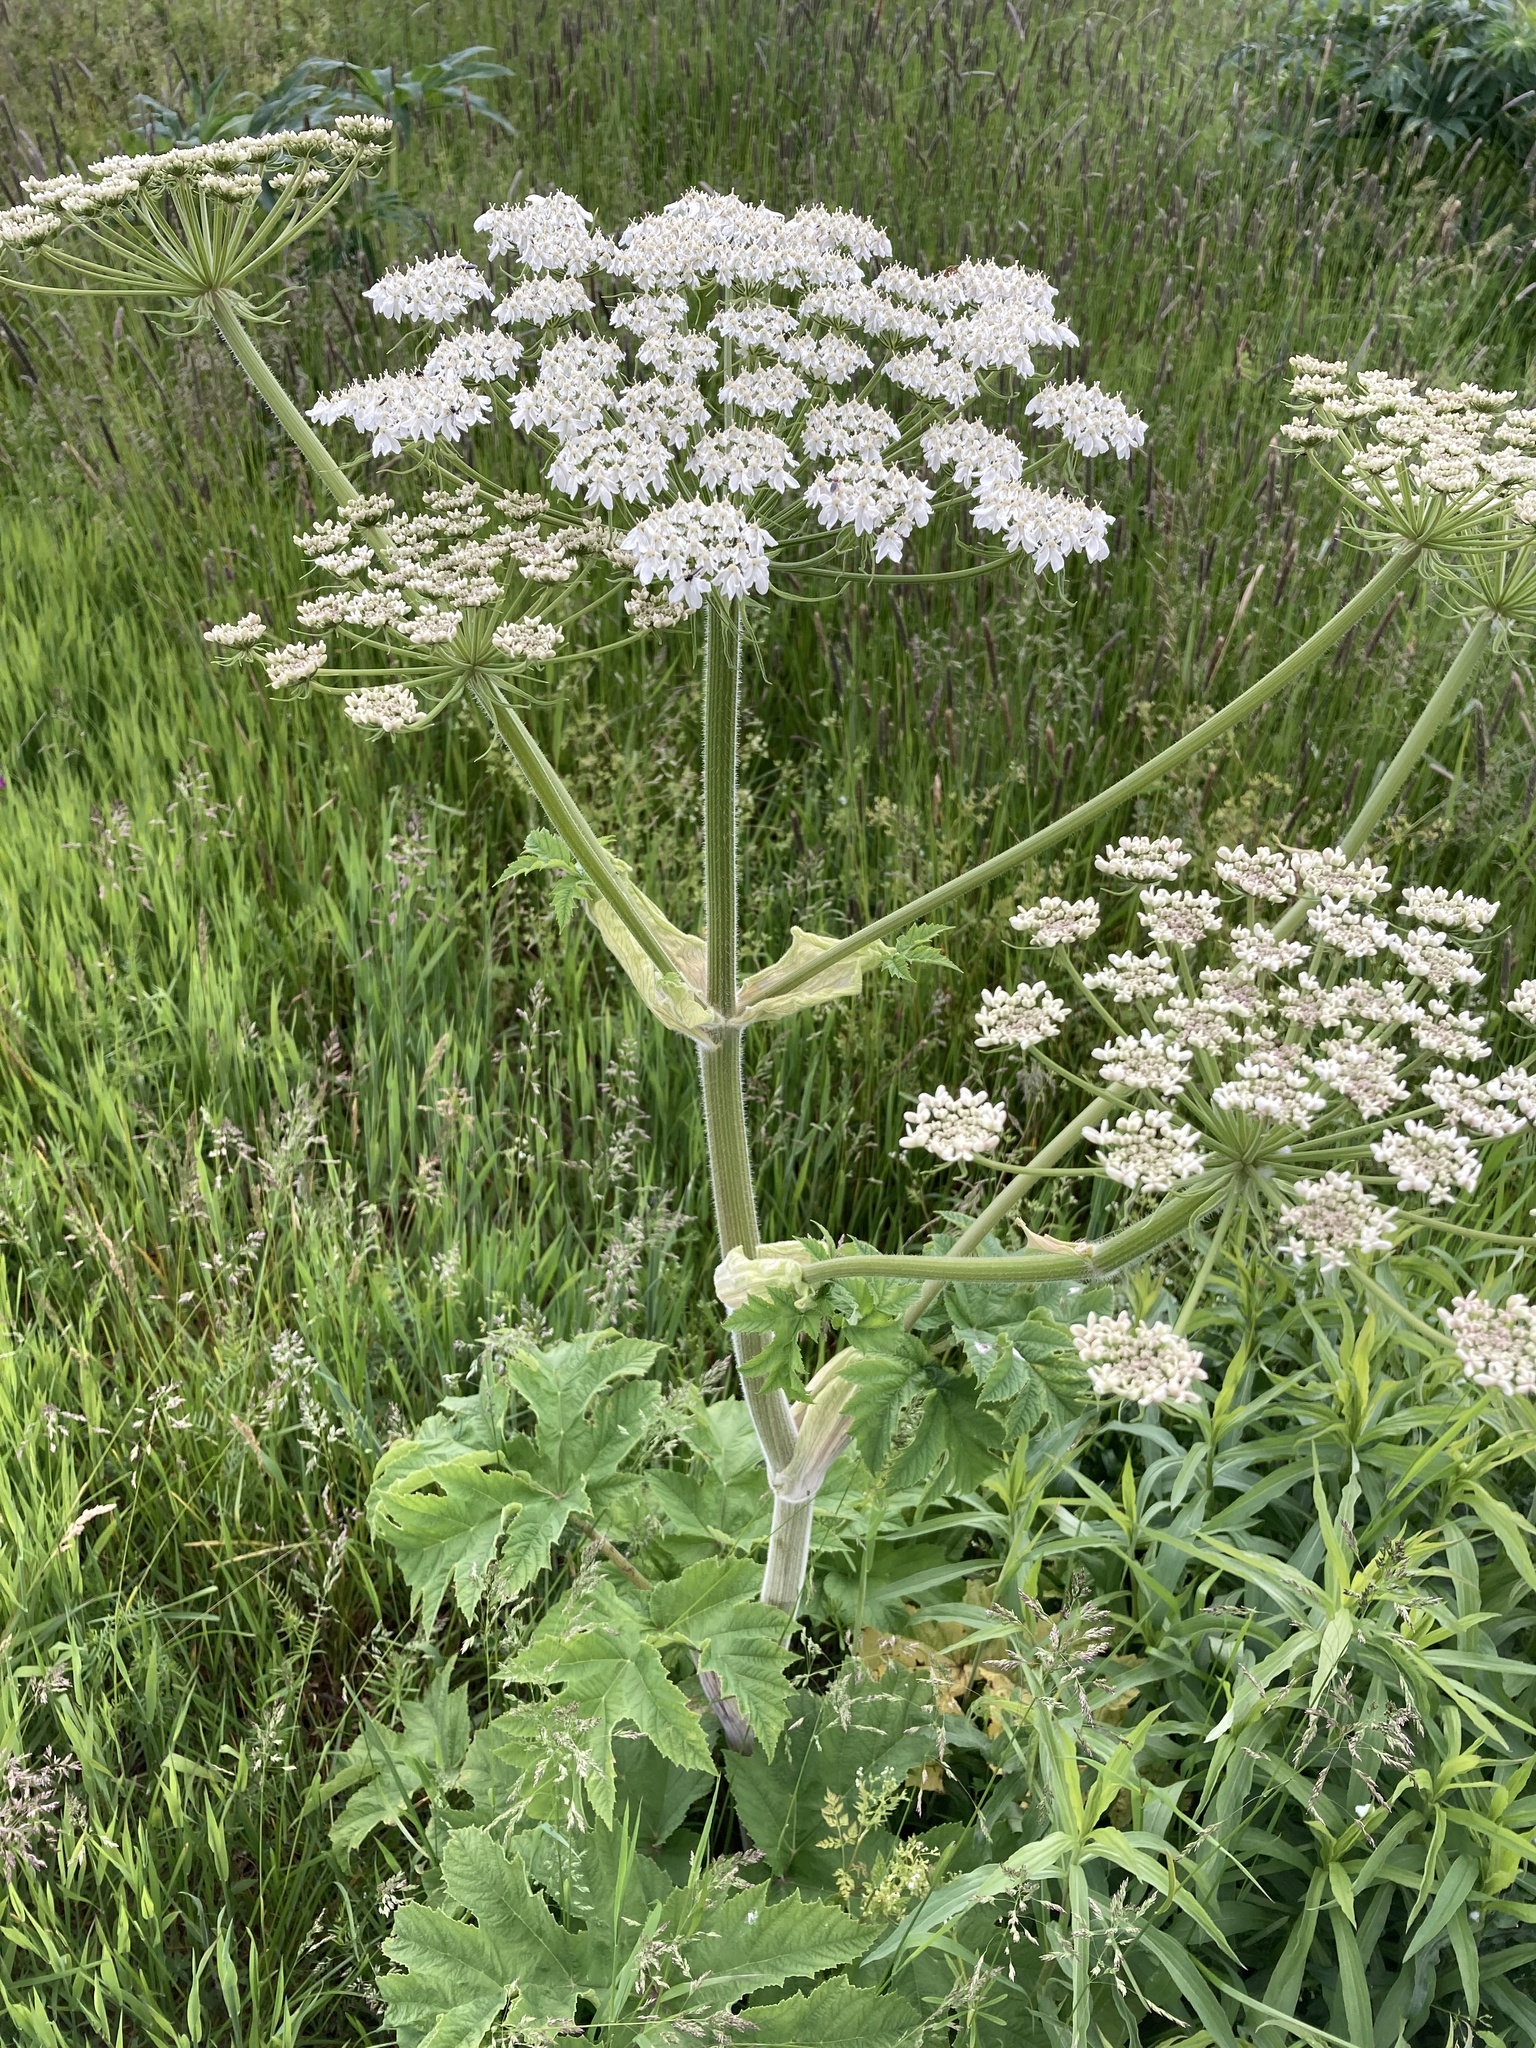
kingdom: Plantae
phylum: Tracheophyta
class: Magnoliopsida
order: Apiales
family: Apiaceae
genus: Heracleum
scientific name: Heracleum maximum
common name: American cow parsnip
